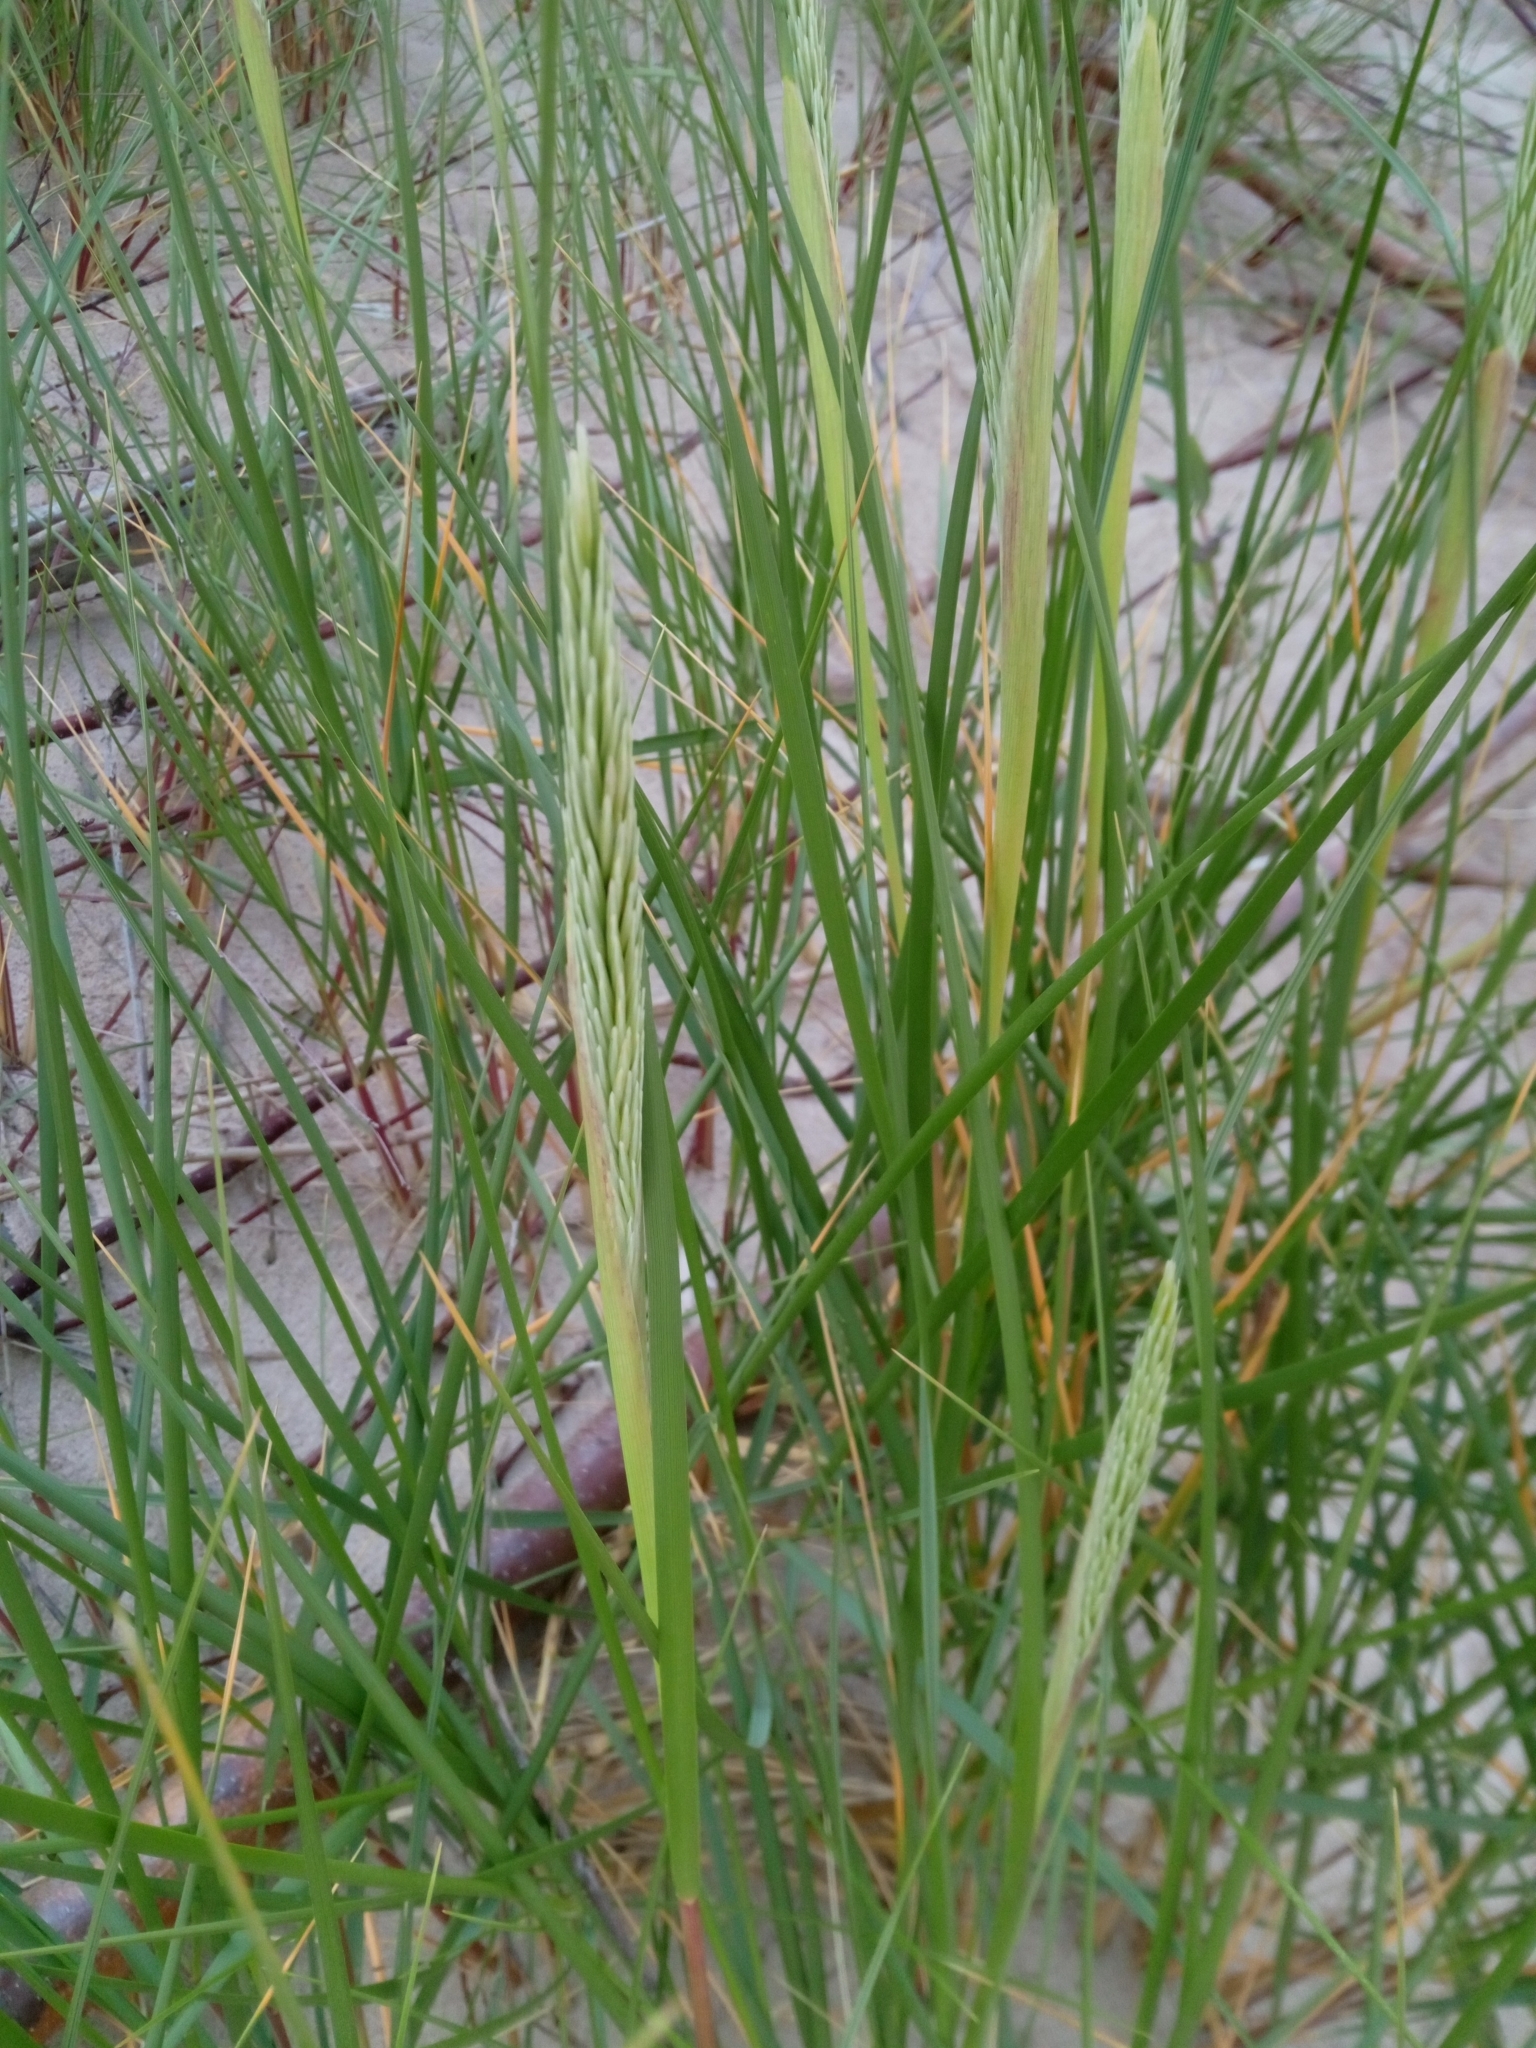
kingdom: Plantae
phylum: Tracheophyta
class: Liliopsida
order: Poales
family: Poaceae
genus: Calamagrostis
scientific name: Calamagrostis arenaria
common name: European beachgrass
